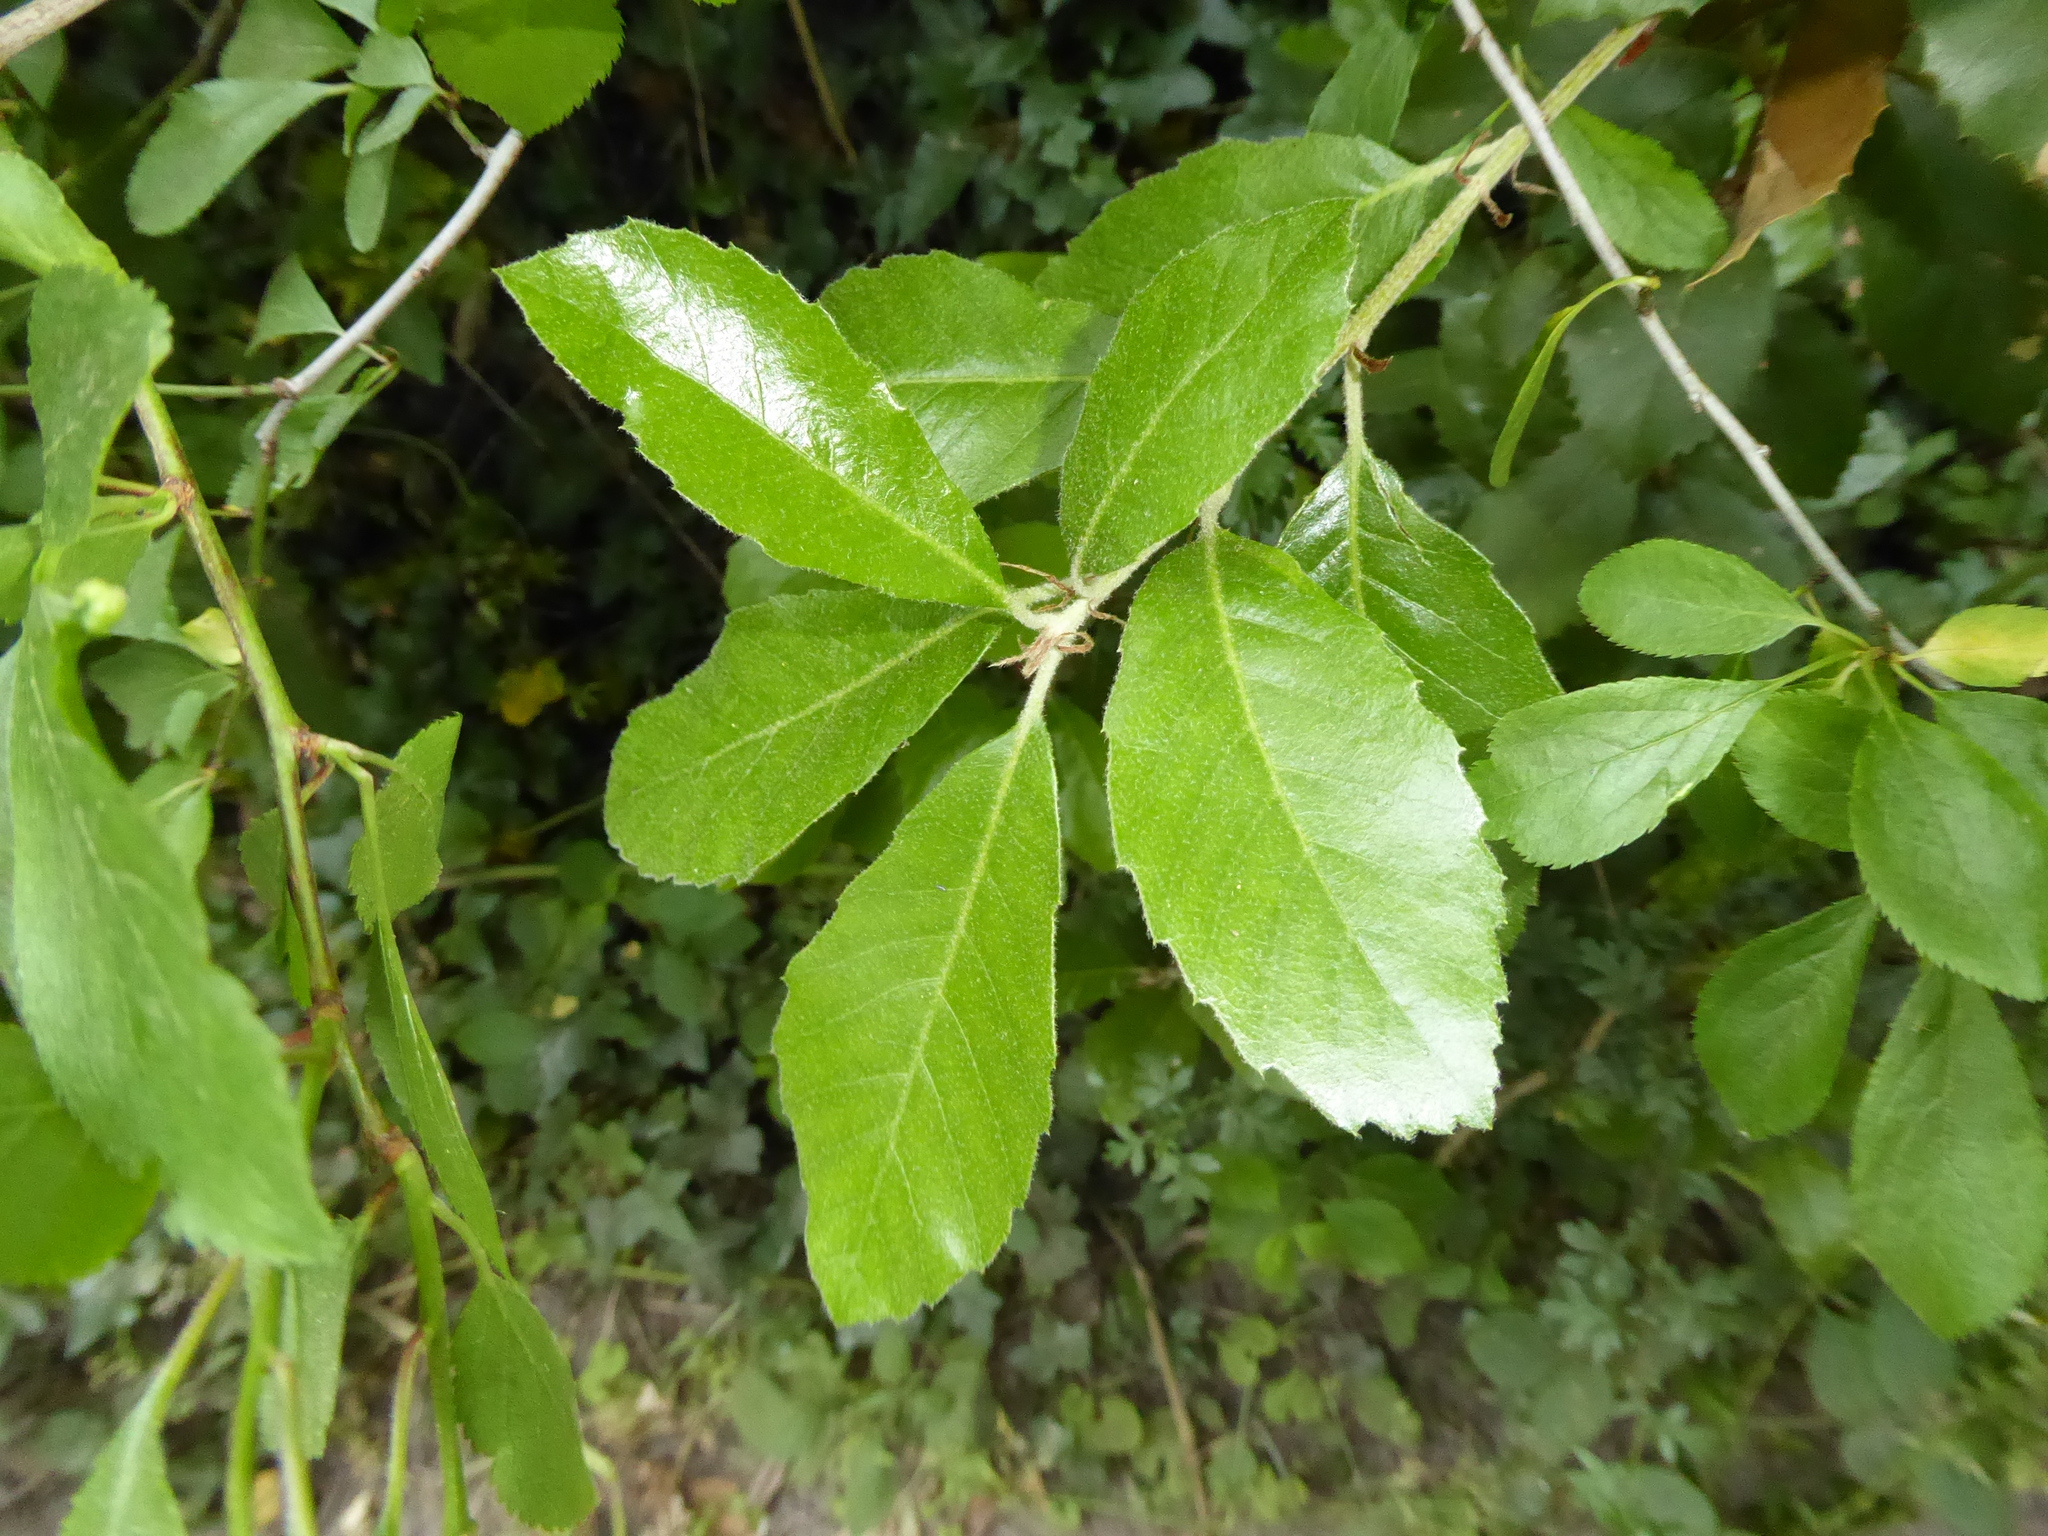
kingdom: Plantae
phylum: Tracheophyta
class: Magnoliopsida
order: Fagales
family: Fagaceae
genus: Quercus
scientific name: Quercus ilex
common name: Evergreen oak
